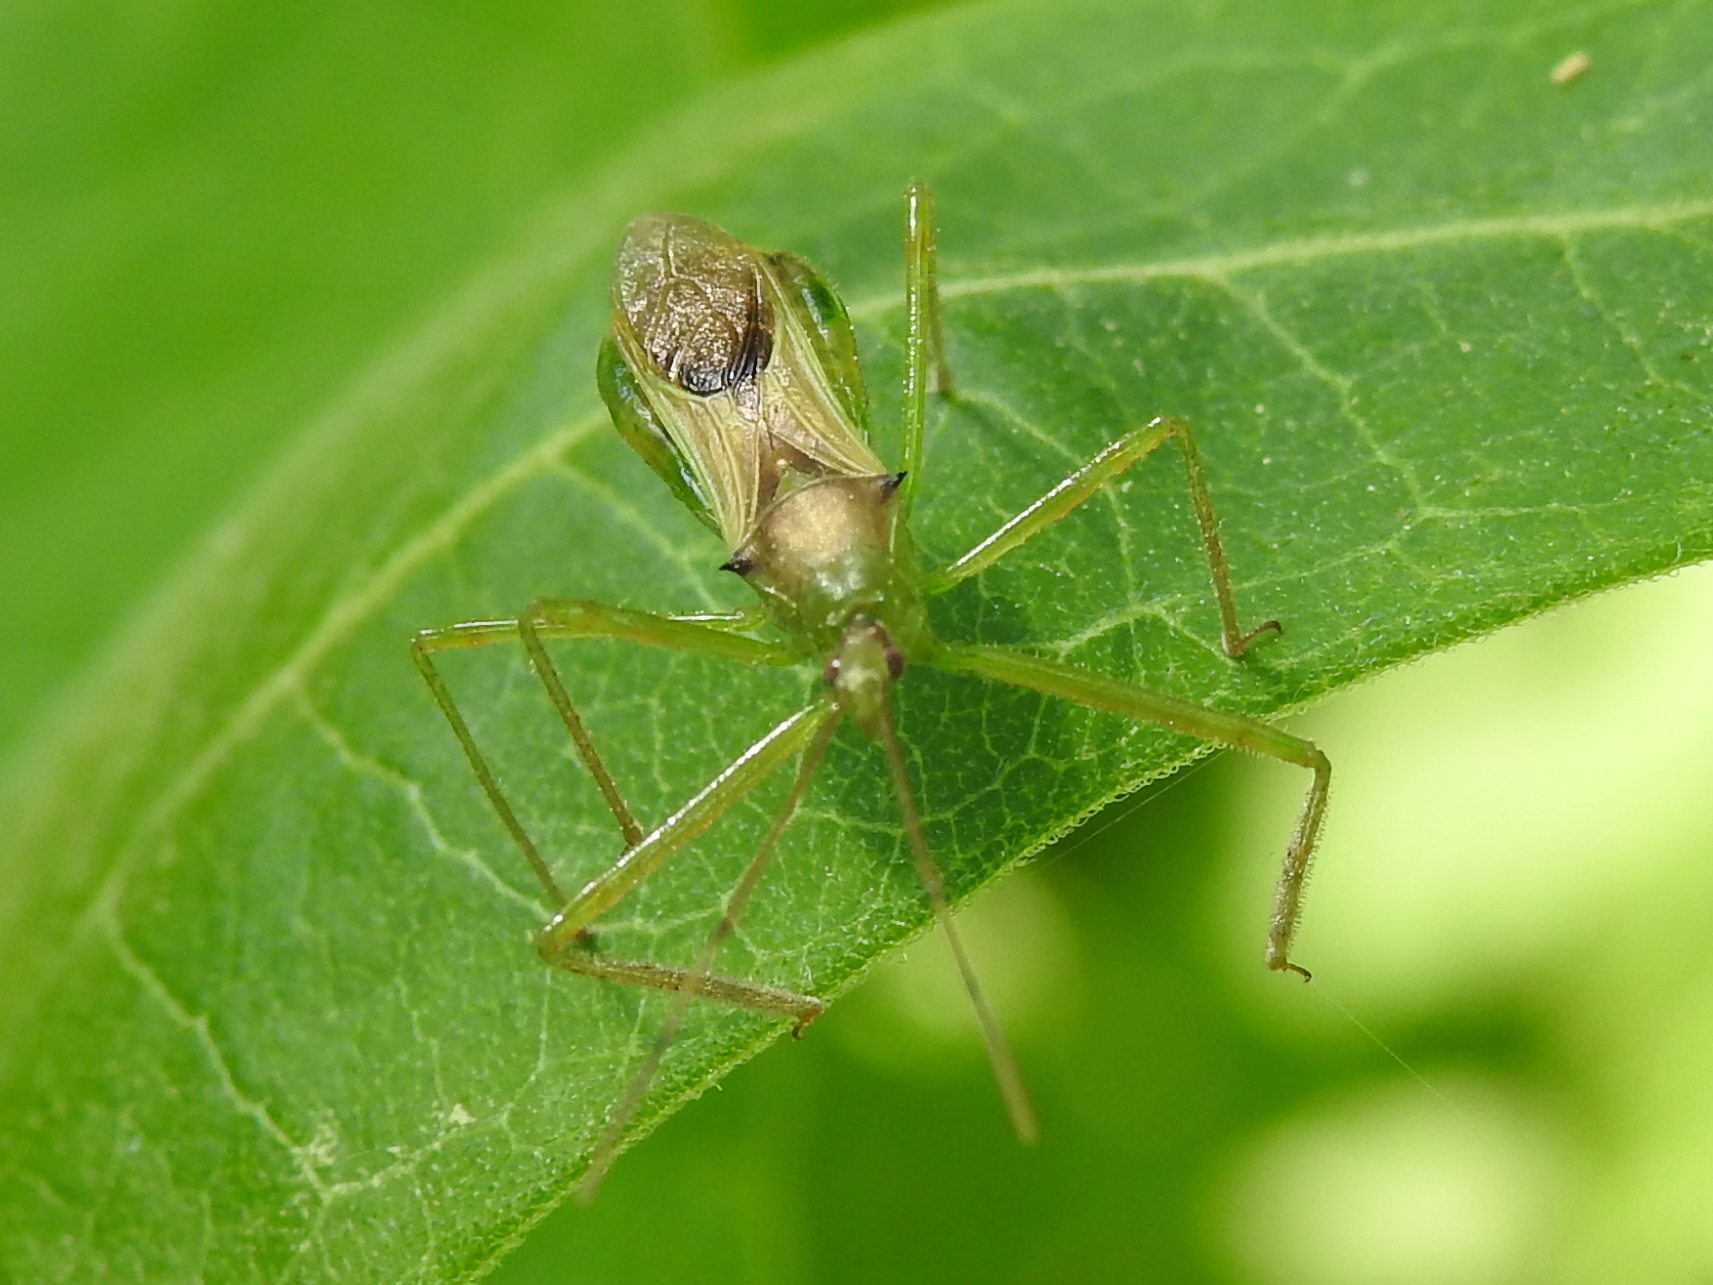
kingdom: Animalia
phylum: Arthropoda
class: Insecta
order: Hemiptera
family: Reduviidae
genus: Zelus
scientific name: Zelus luridus
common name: Pale green assassin bug
